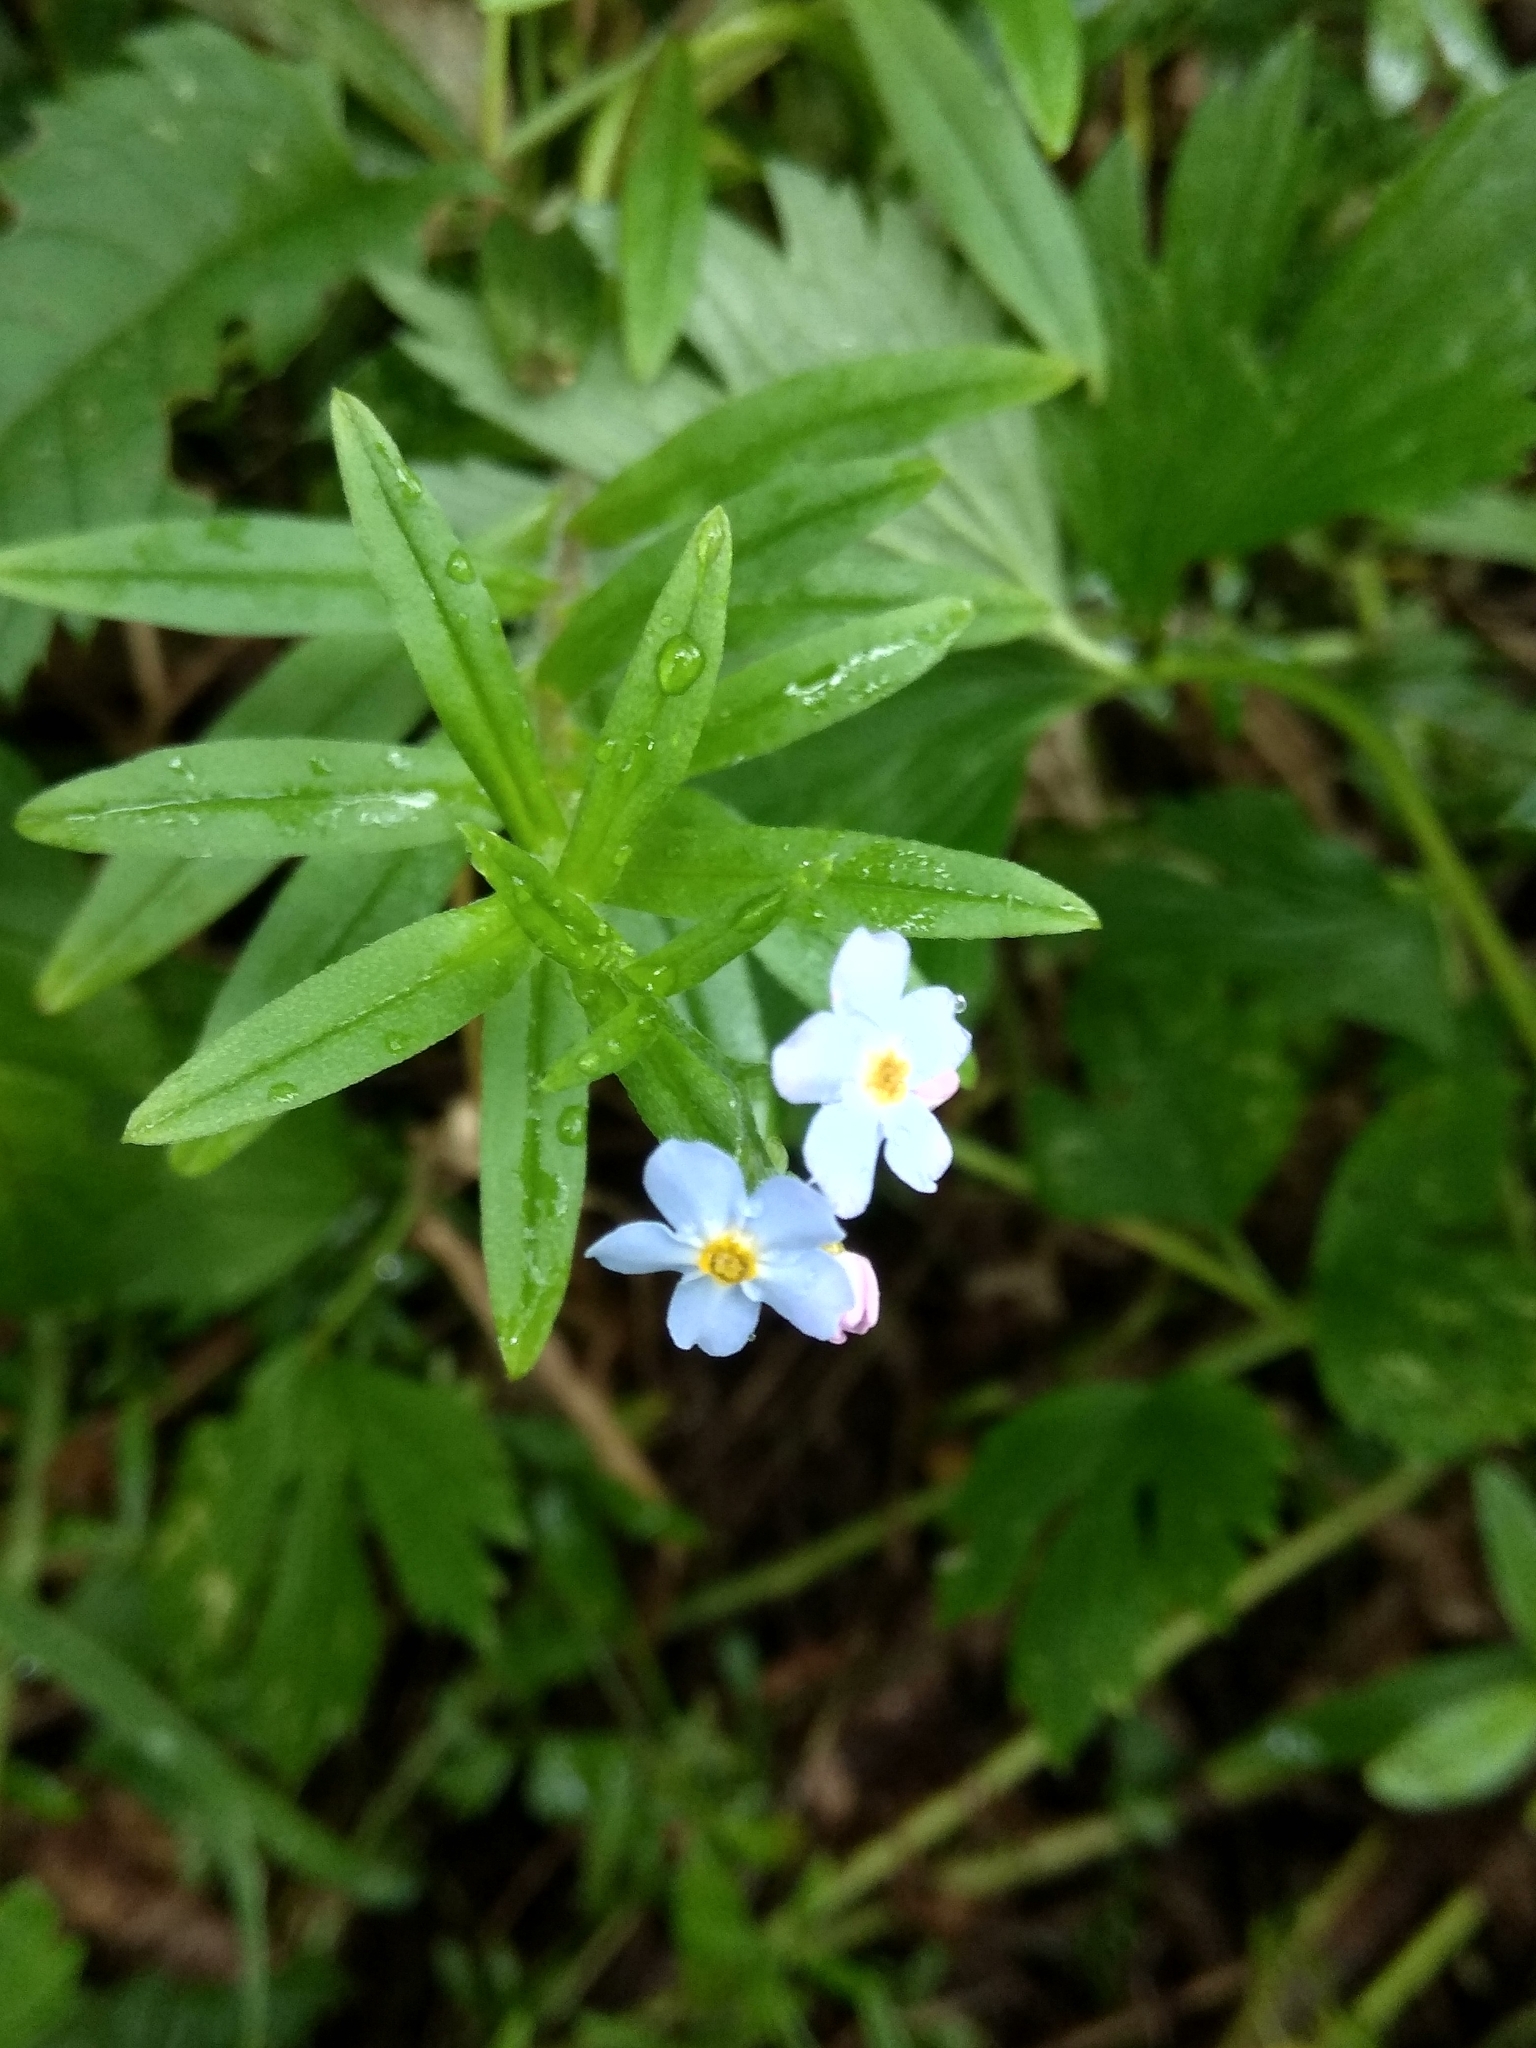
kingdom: Plantae
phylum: Tracheophyta
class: Magnoliopsida
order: Boraginales
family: Boraginaceae
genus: Myosotis
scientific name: Myosotis scorpioides
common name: Water forget-me-not
